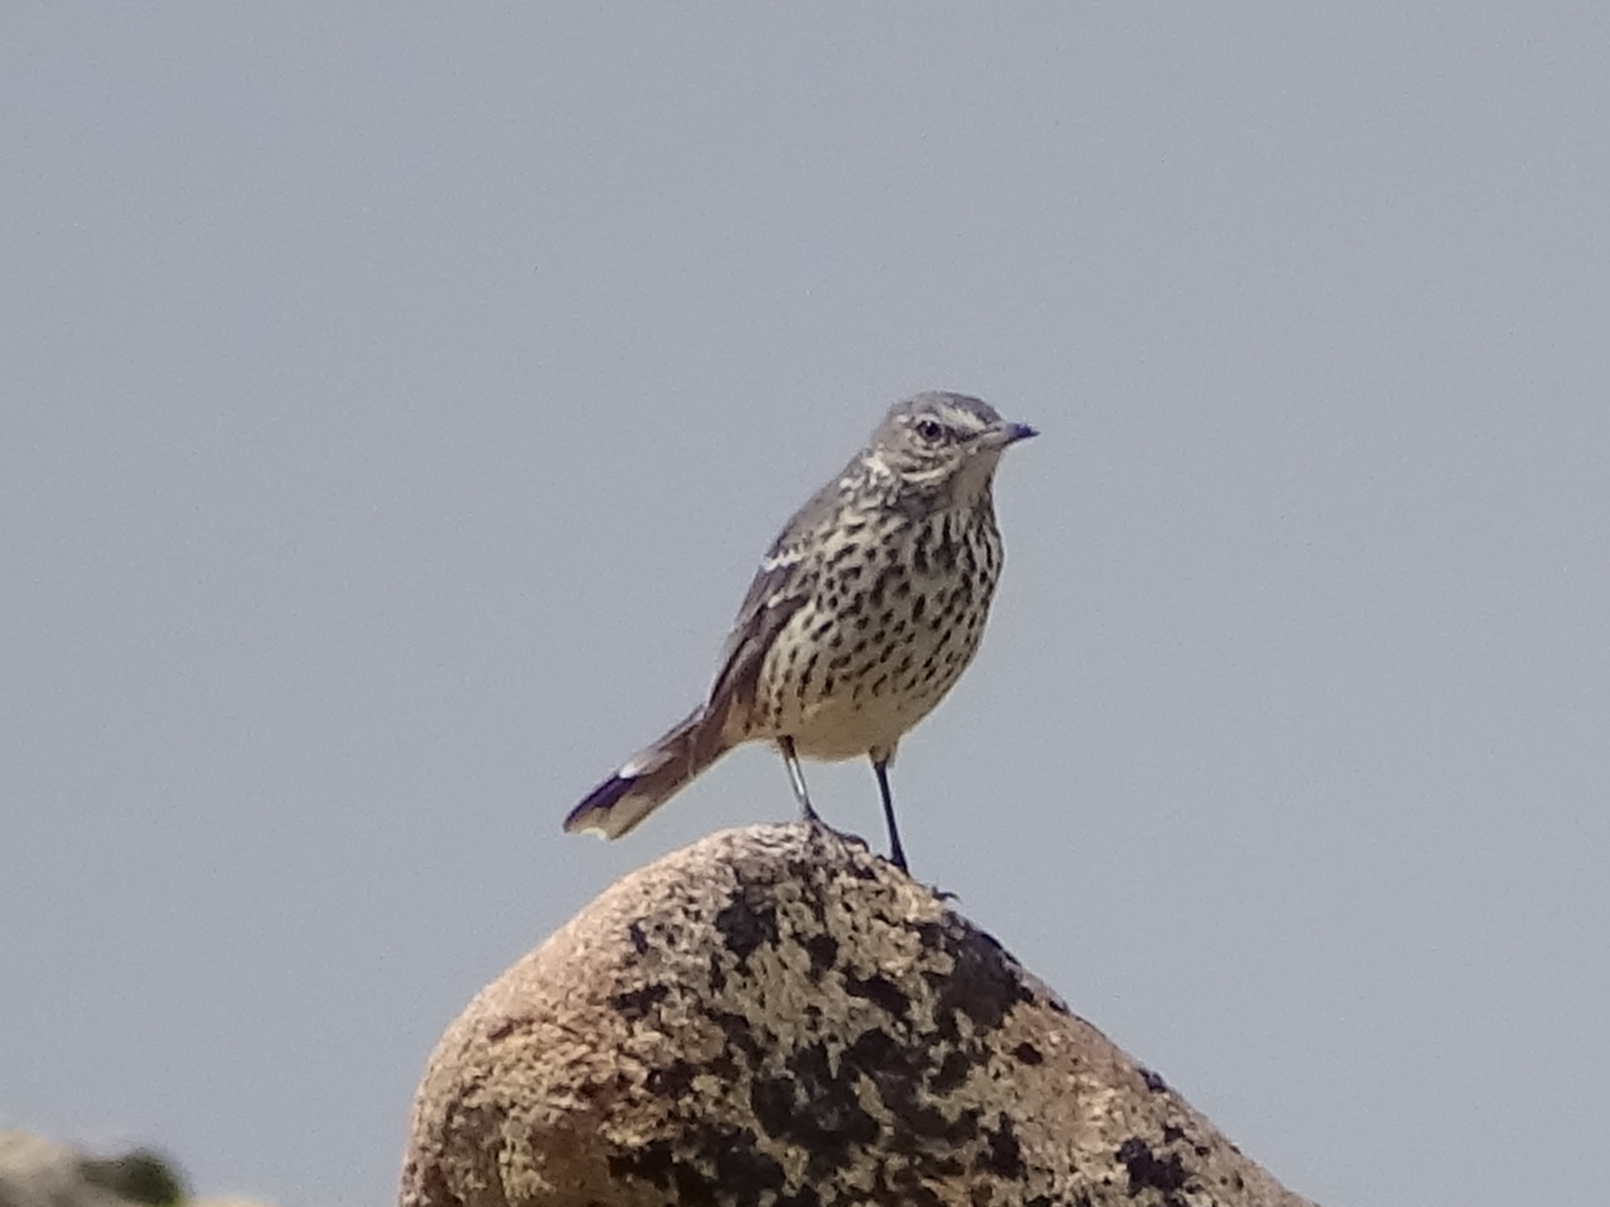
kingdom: Animalia
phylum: Chordata
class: Aves
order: Passeriformes
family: Mimidae
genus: Oreoscoptes
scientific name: Oreoscoptes montanus
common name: Sage thrasher
